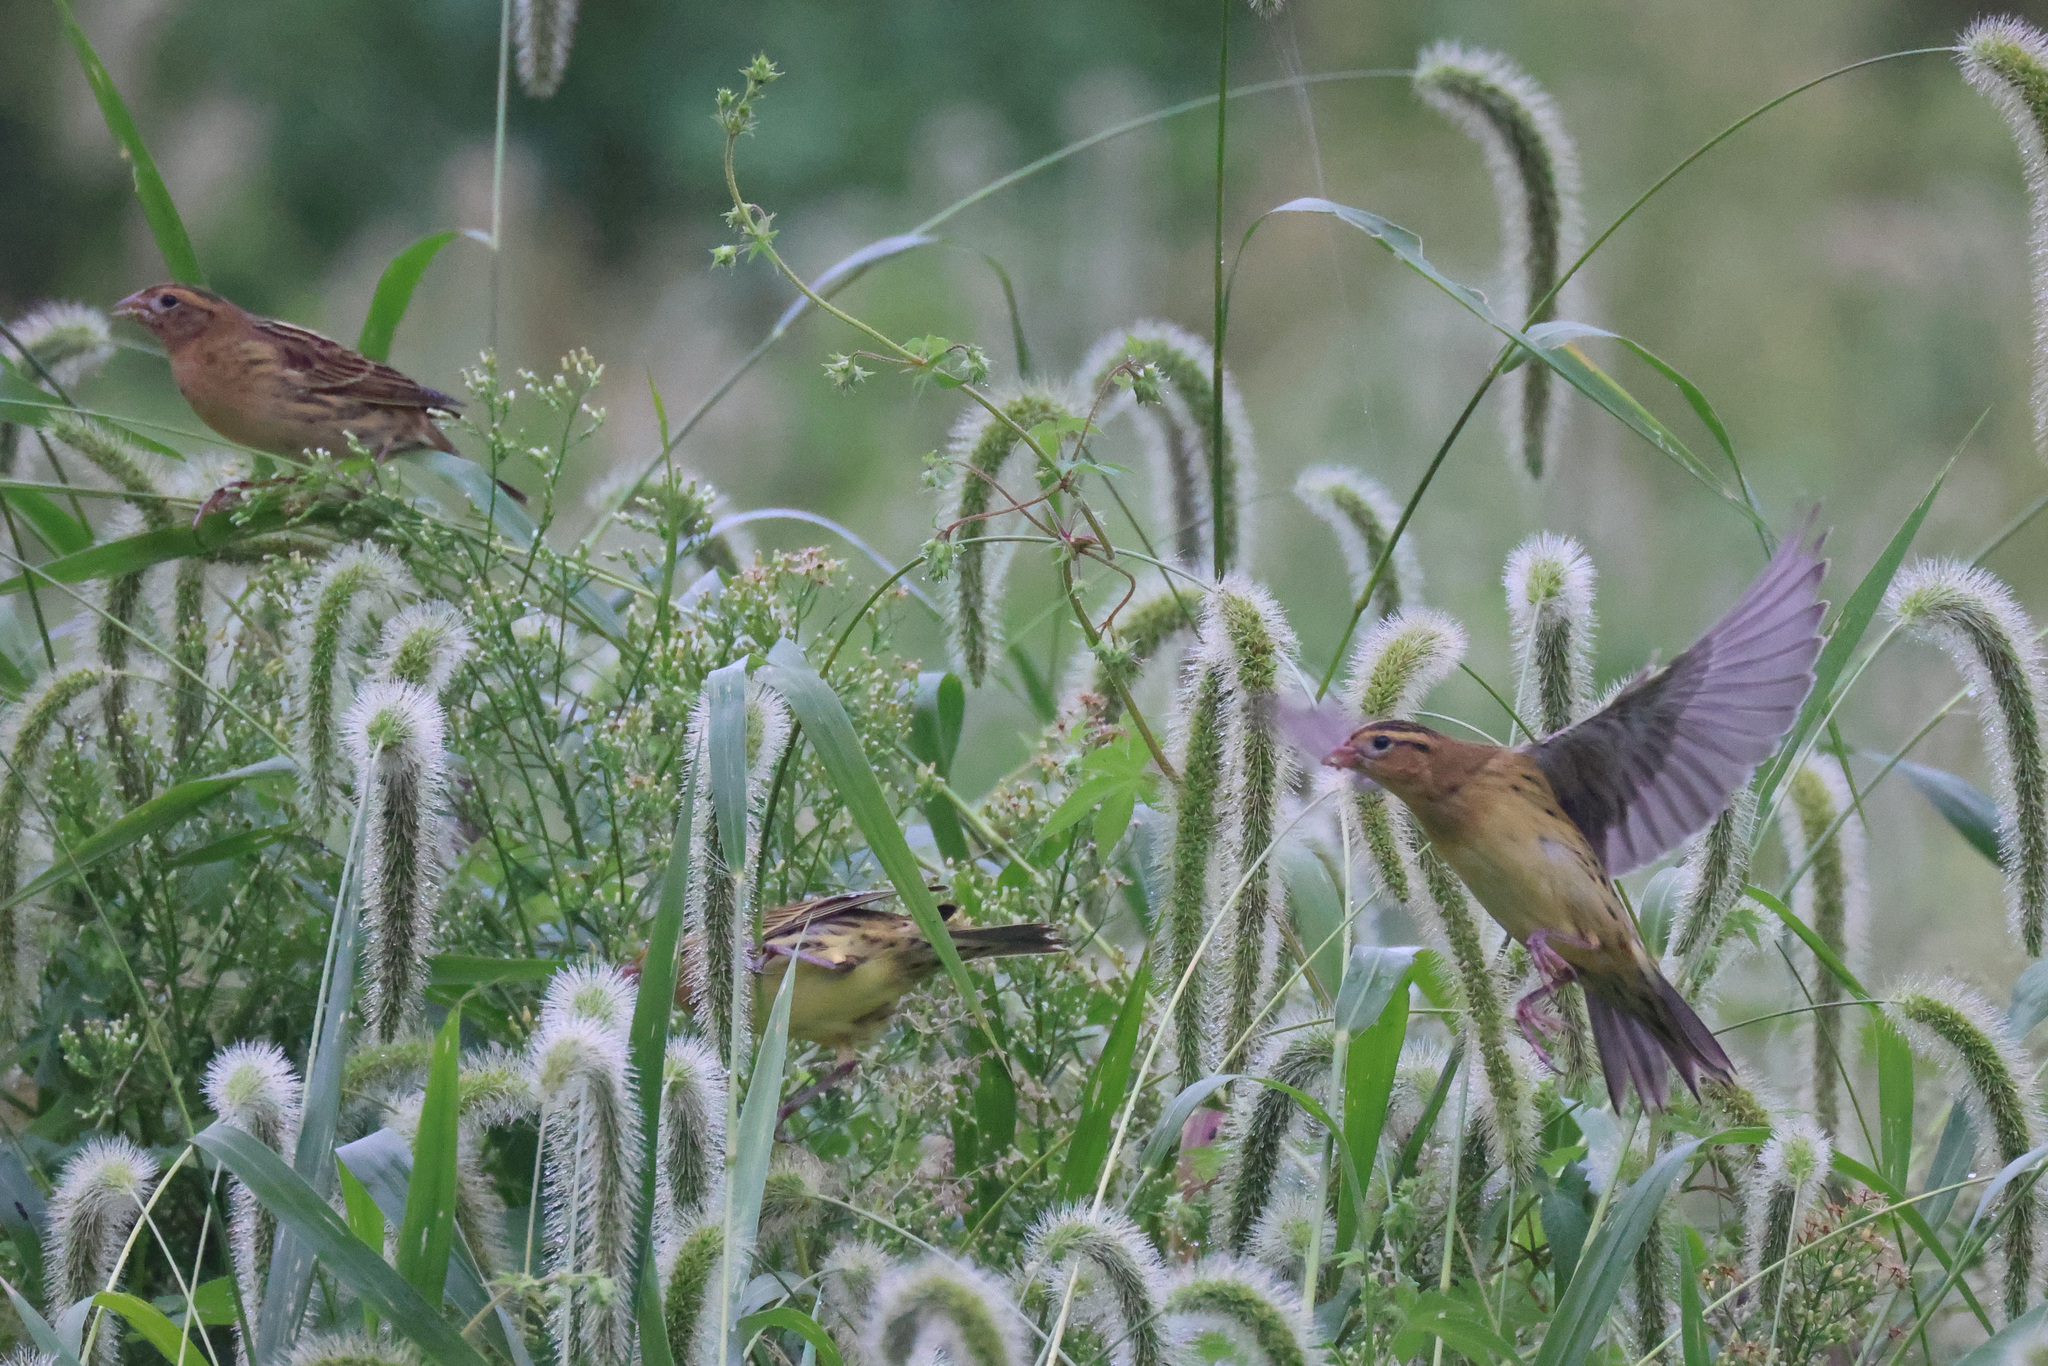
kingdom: Animalia
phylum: Chordata
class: Aves
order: Passeriformes
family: Icteridae
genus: Dolichonyx
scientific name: Dolichonyx oryzivorus
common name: Bobolink
